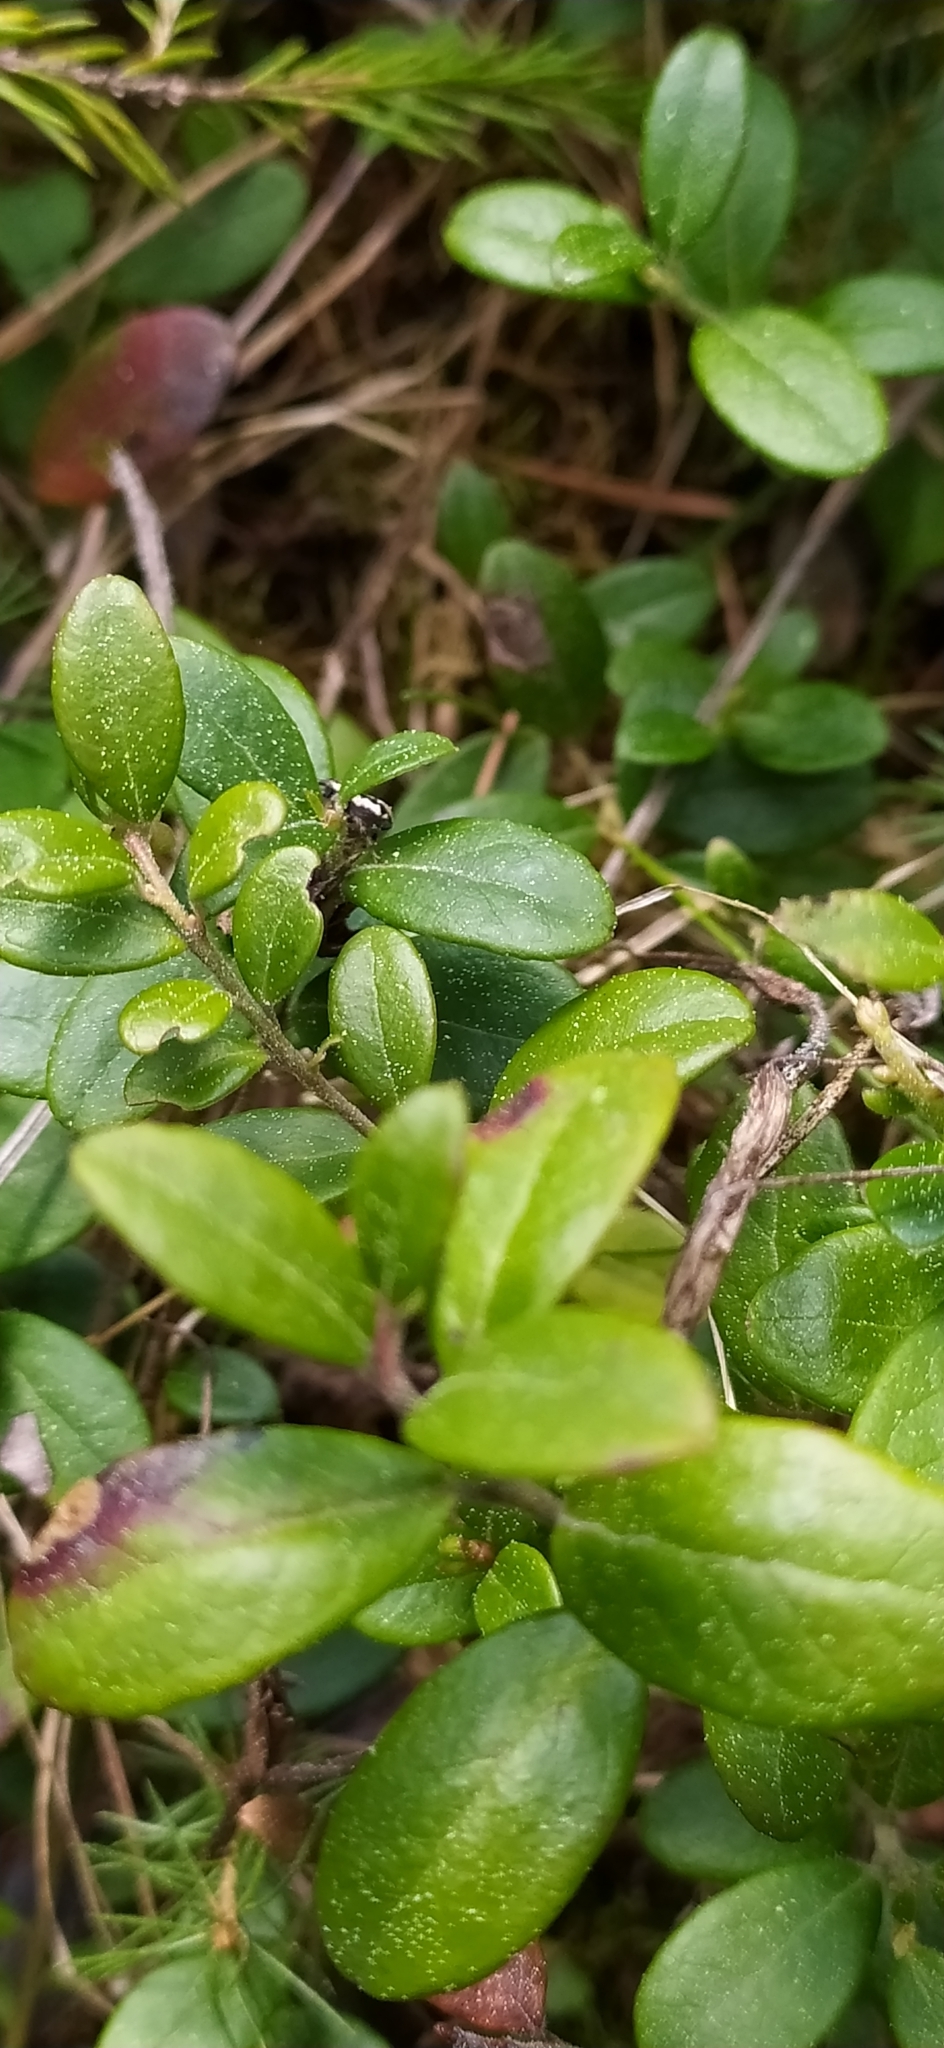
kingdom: Plantae
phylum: Tracheophyta
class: Magnoliopsida
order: Ericales
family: Ericaceae
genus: Vaccinium
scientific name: Vaccinium vitis-idaea
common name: Cowberry
